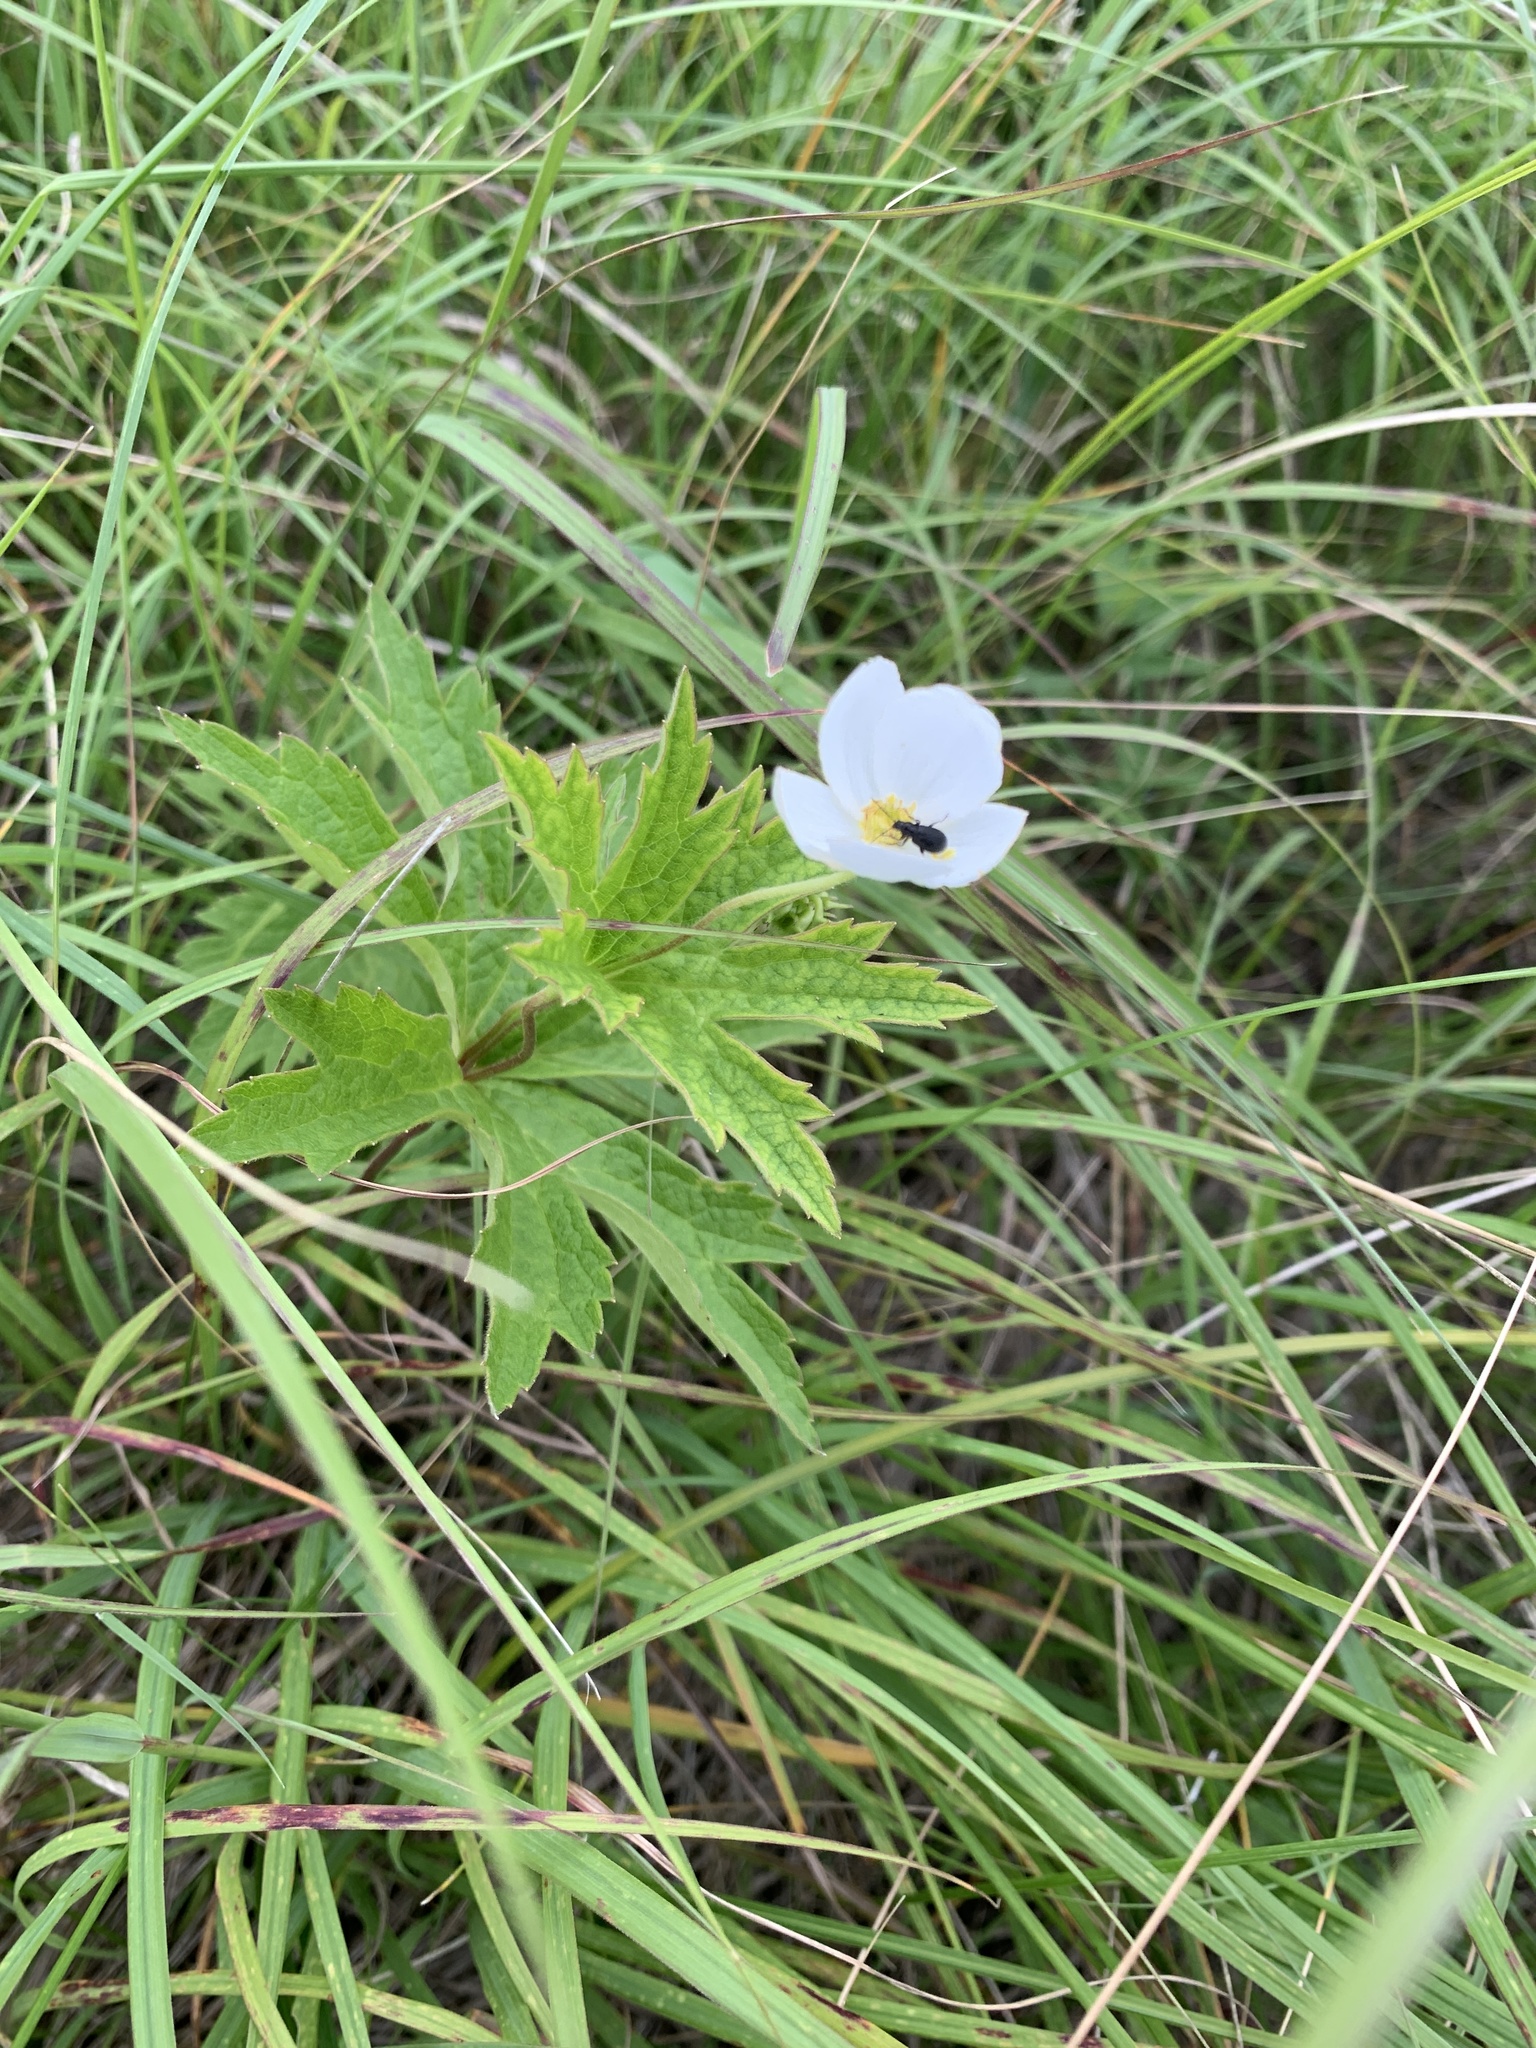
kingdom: Plantae
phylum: Tracheophyta
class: Magnoliopsida
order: Ranunculales
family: Ranunculaceae
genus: Anemonastrum
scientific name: Anemonastrum canadense
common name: Canada anemone
